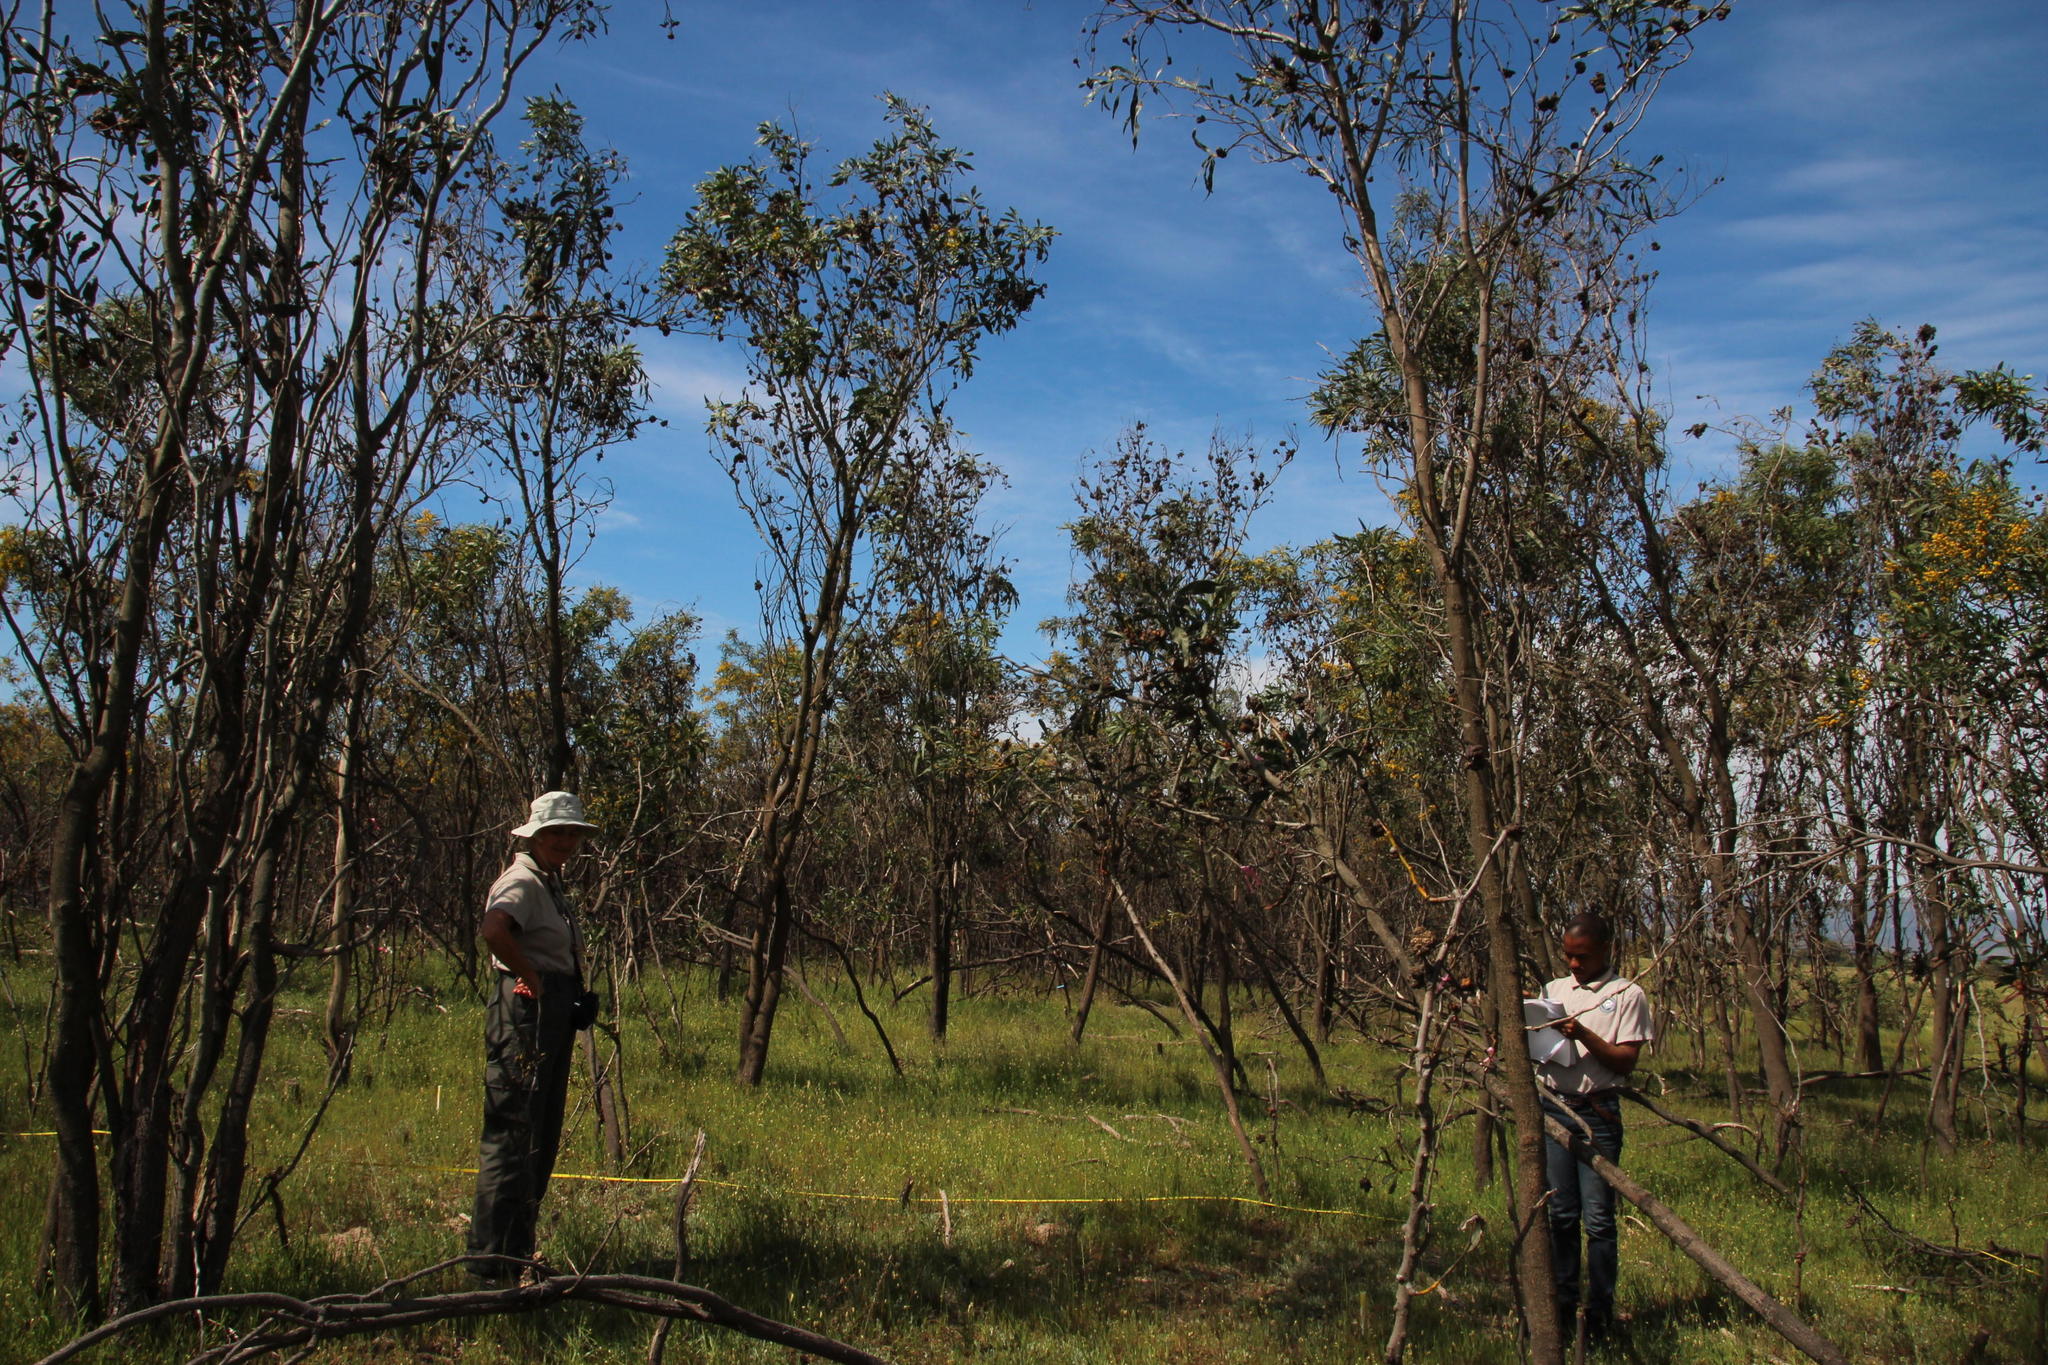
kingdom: Plantae
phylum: Tracheophyta
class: Magnoliopsida
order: Fabales
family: Fabaceae
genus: Acacia
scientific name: Acacia saligna
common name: Orange wattle
